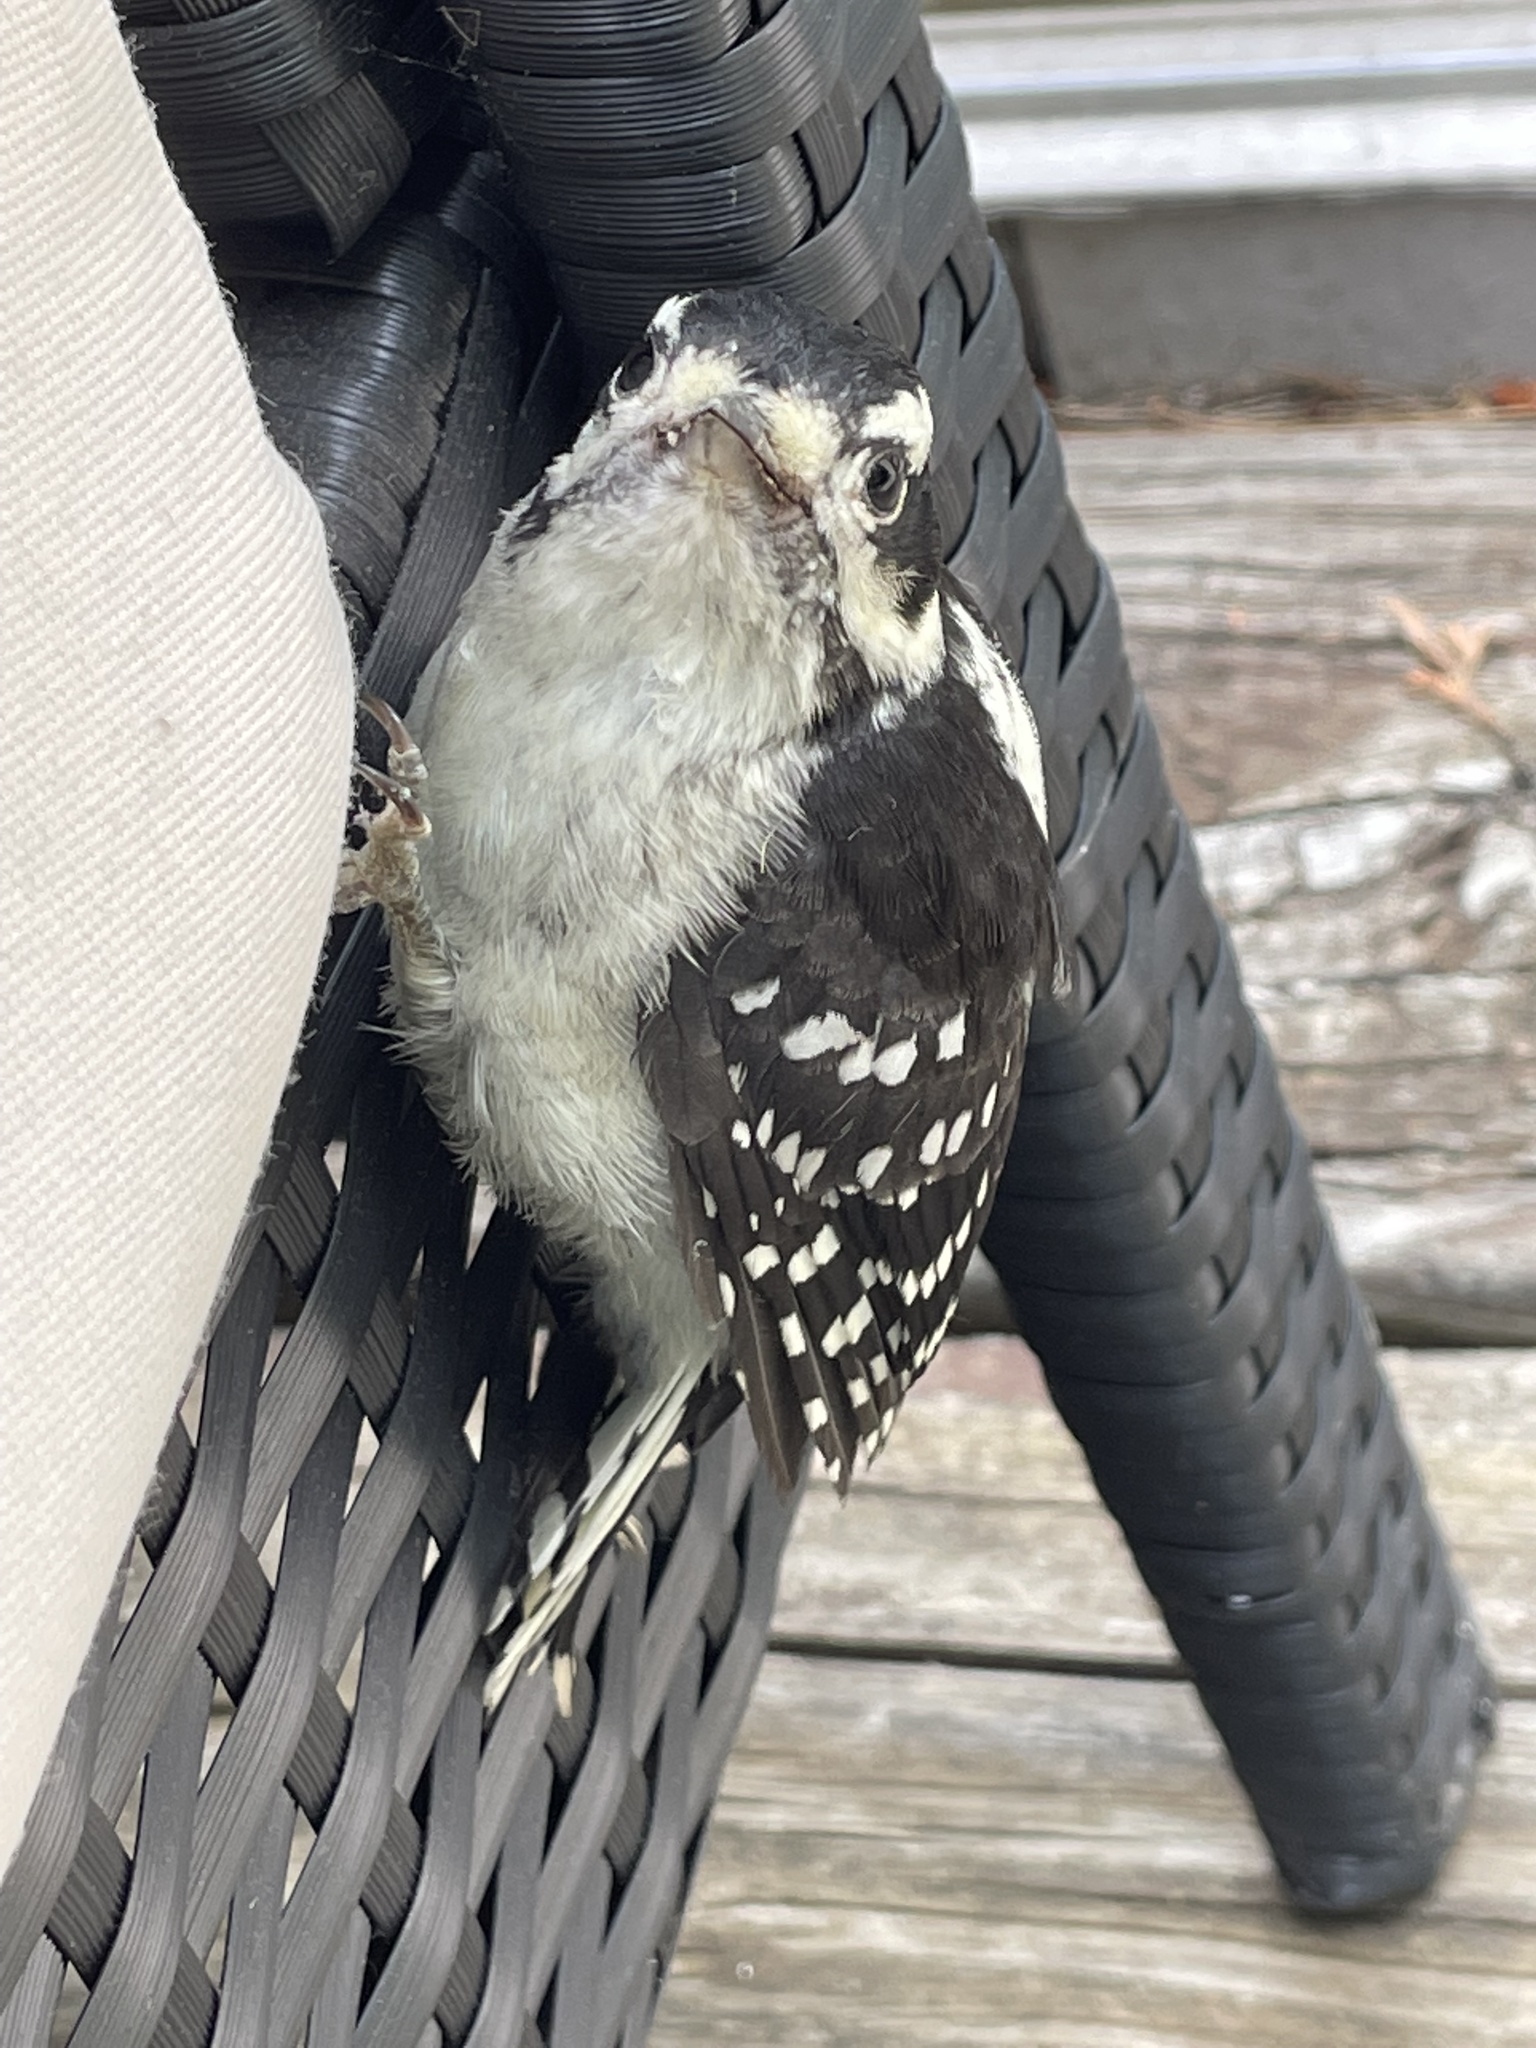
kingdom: Animalia
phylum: Chordata
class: Aves
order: Piciformes
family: Picidae
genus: Dryobates
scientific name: Dryobates pubescens
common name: Downy woodpecker
